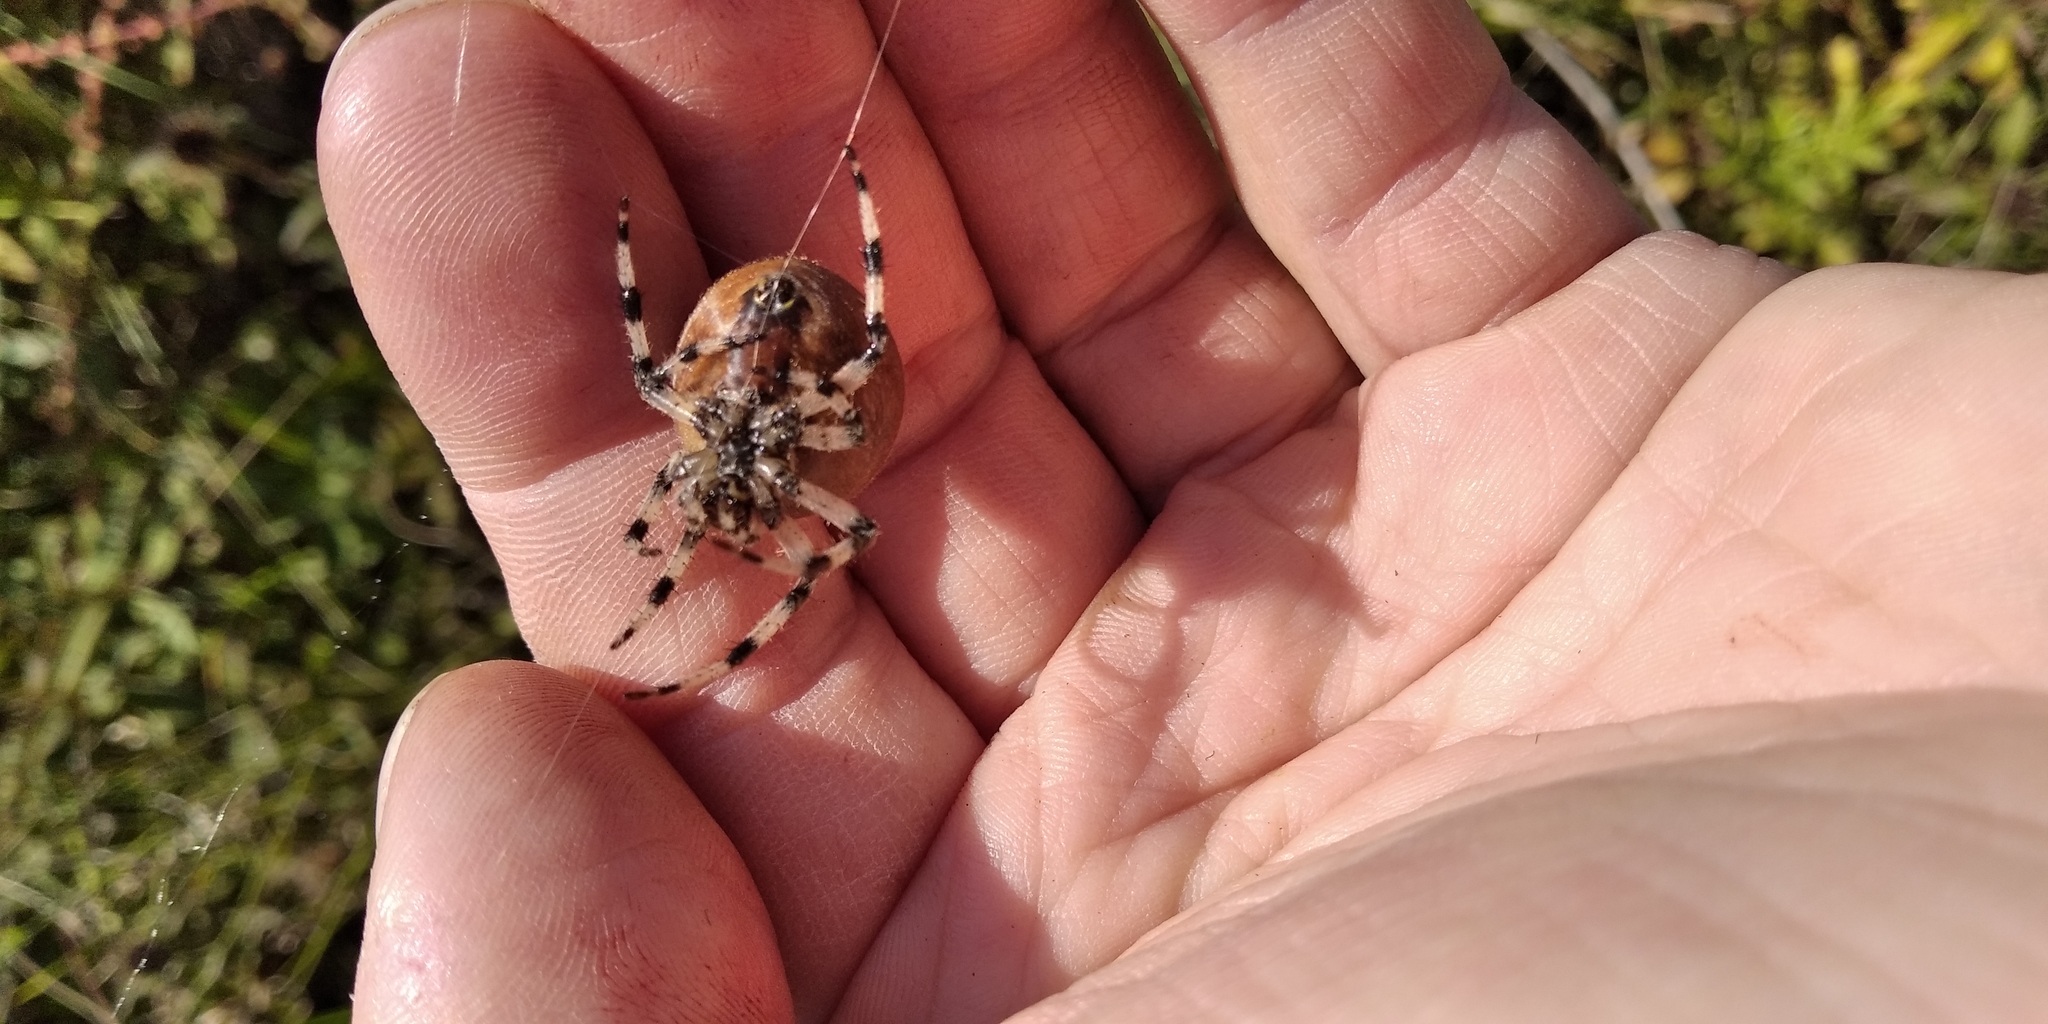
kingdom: Animalia
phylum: Arthropoda
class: Arachnida
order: Araneae
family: Araneidae
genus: Araneus
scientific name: Araneus quadratus
